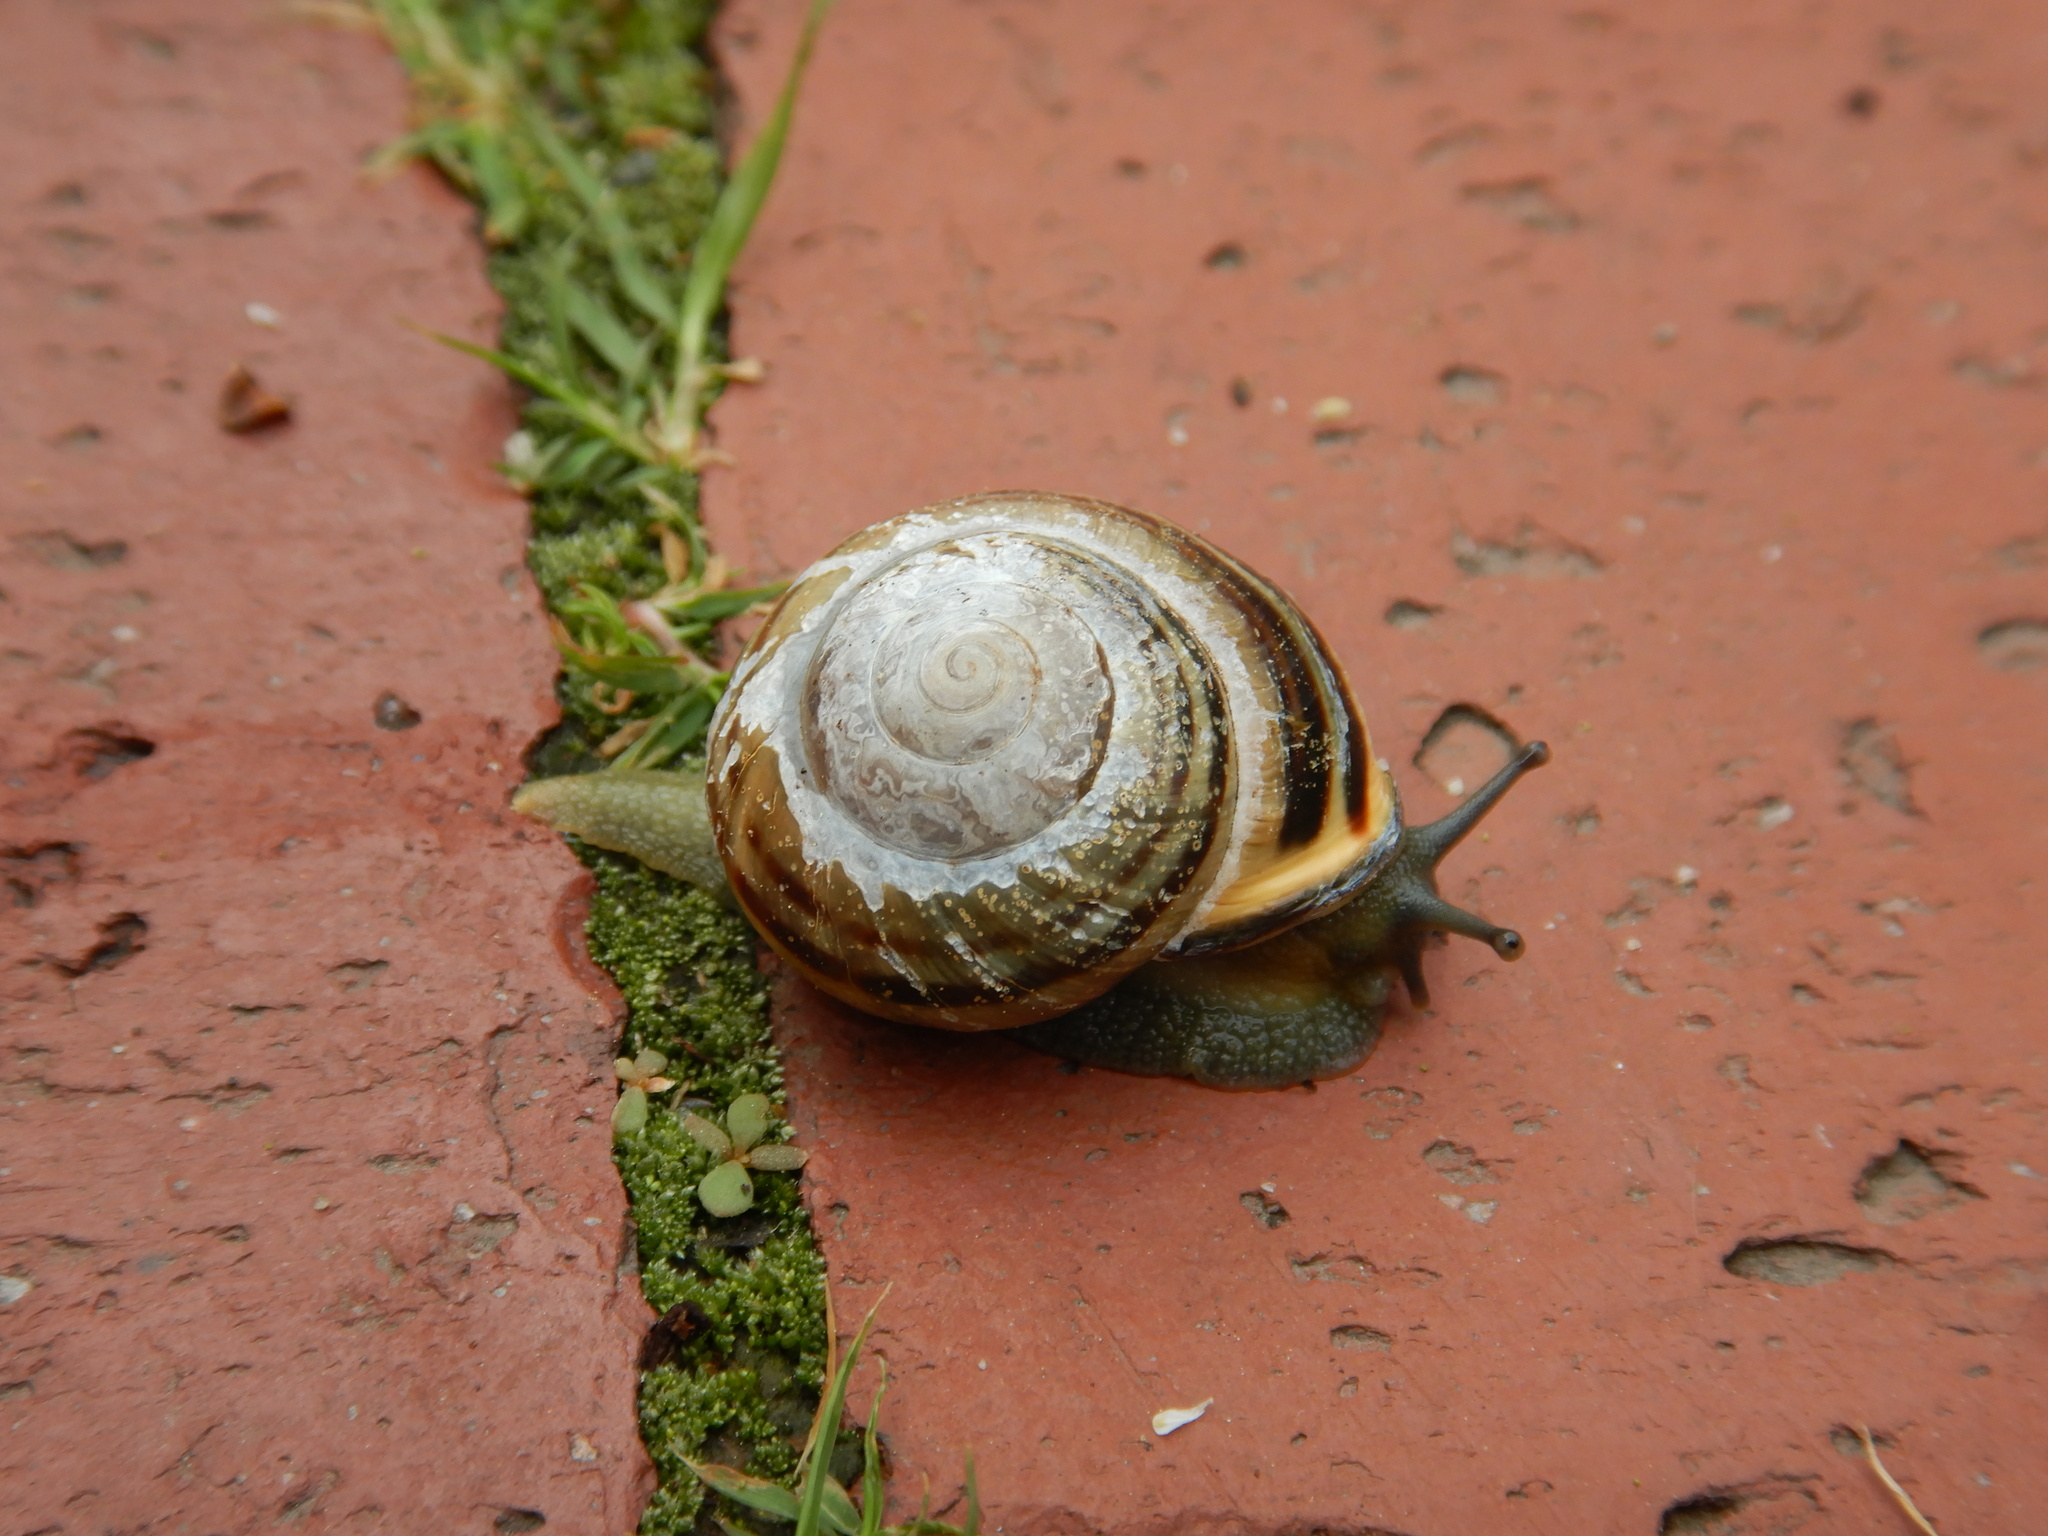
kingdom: Animalia
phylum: Mollusca
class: Gastropoda
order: Stylommatophora
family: Helicidae
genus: Cepaea
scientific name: Cepaea nemoralis
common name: Grovesnail
